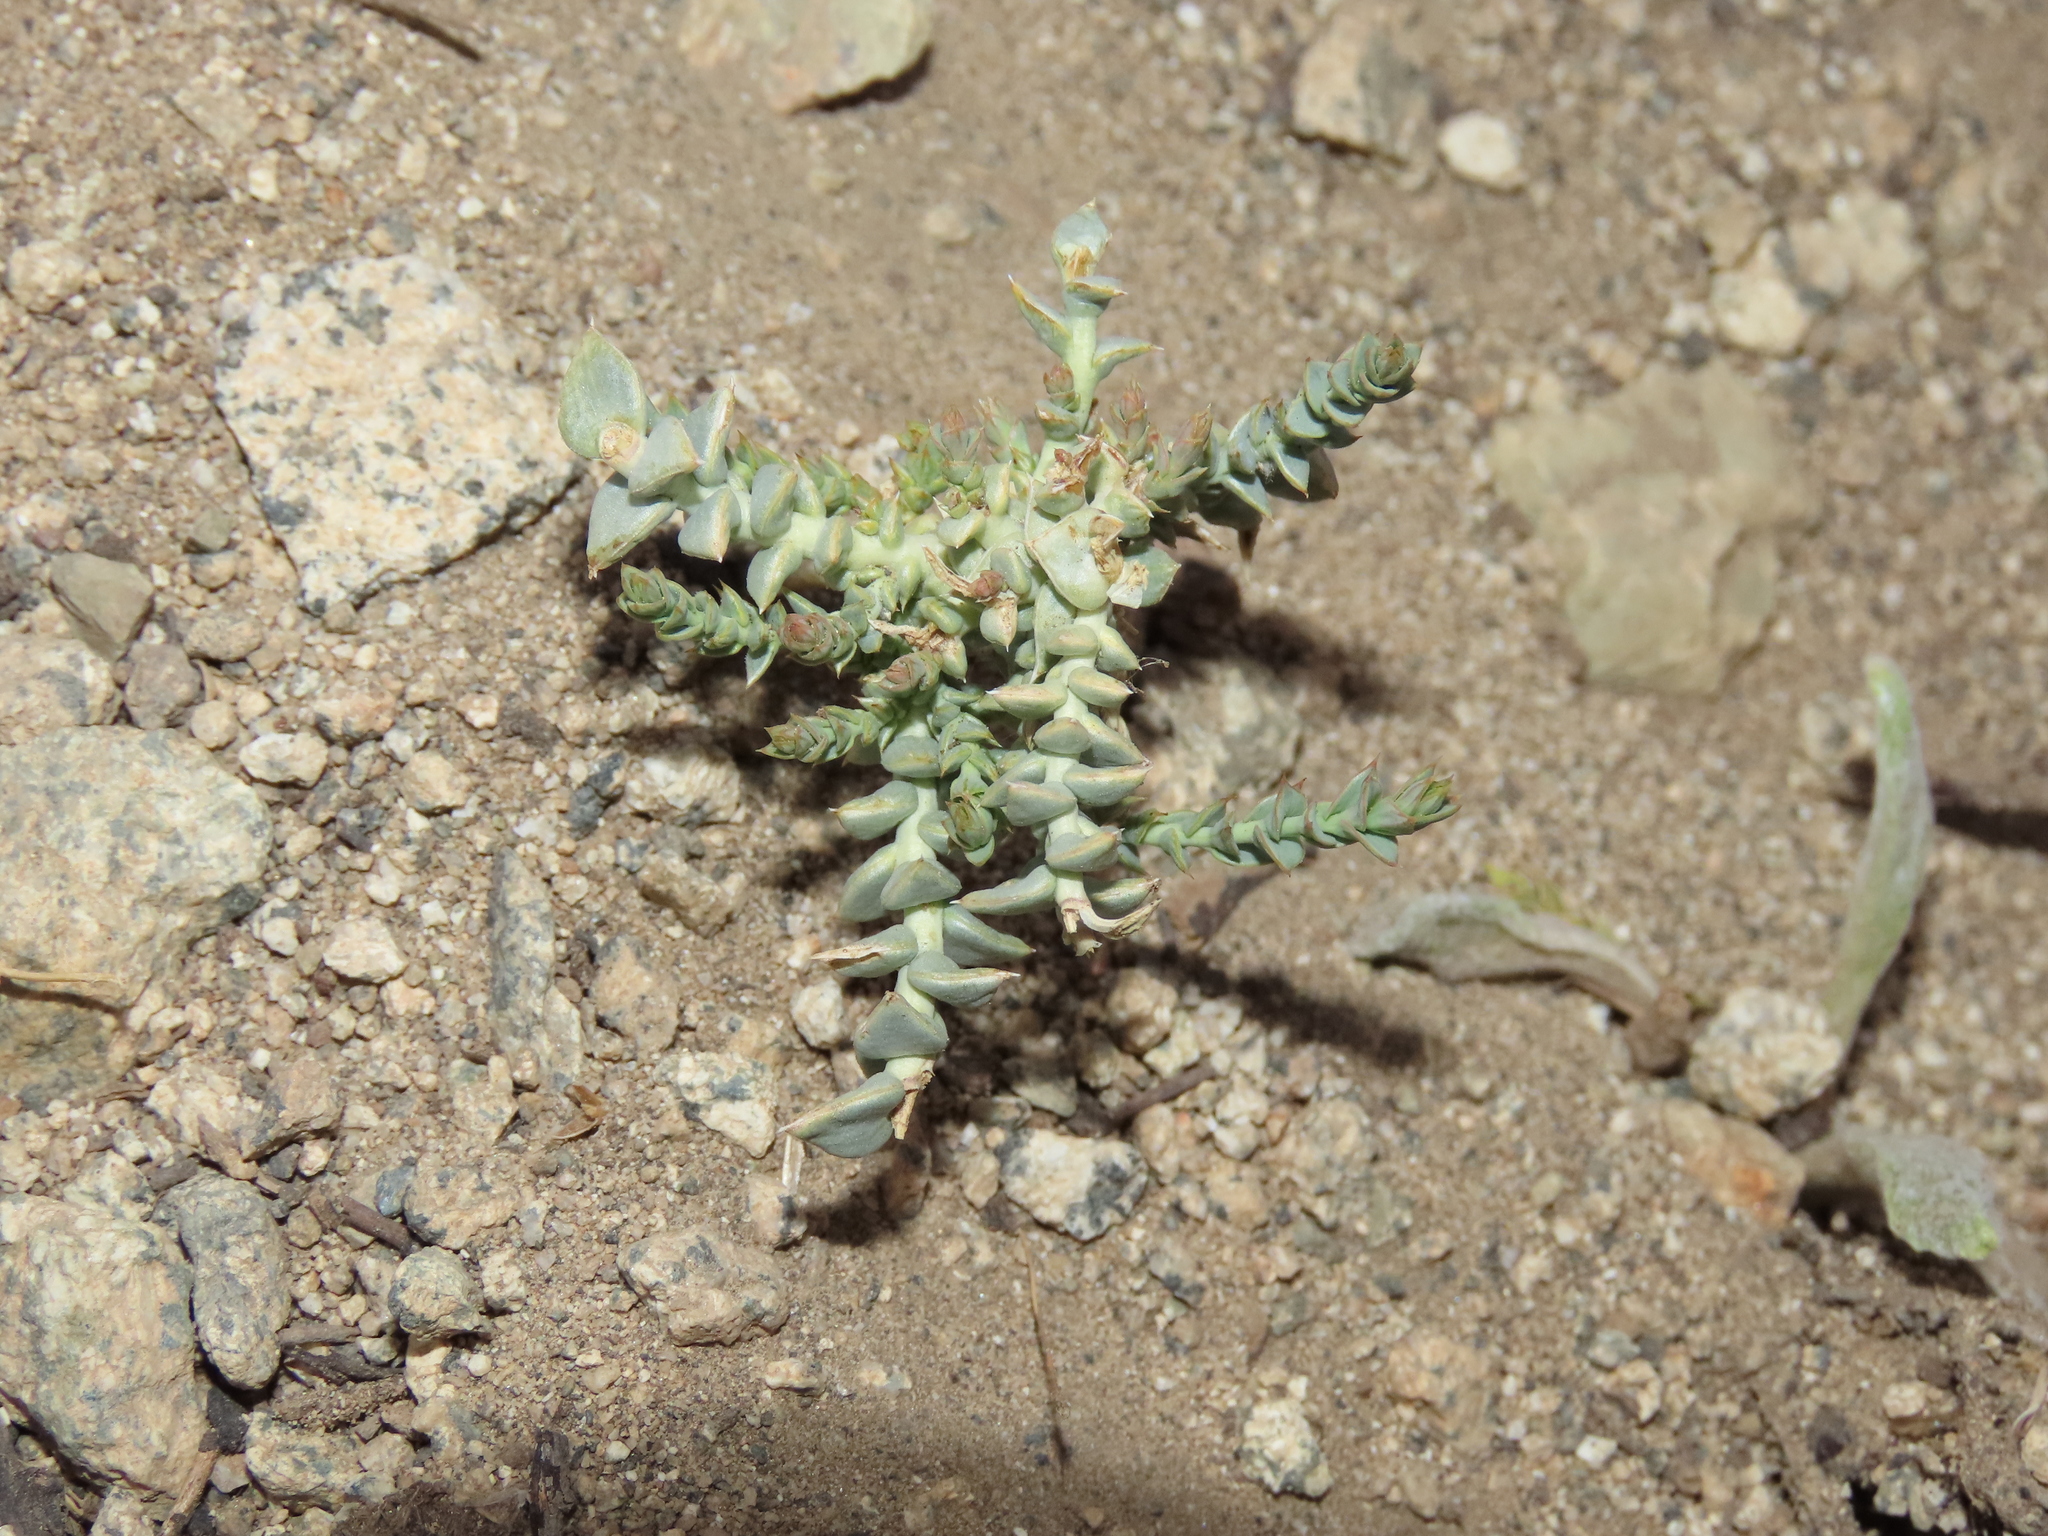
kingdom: Plantae
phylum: Tracheophyta
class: Magnoliopsida
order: Santalales
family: Schoepfiaceae
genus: Arjona
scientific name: Arjona patagonica
